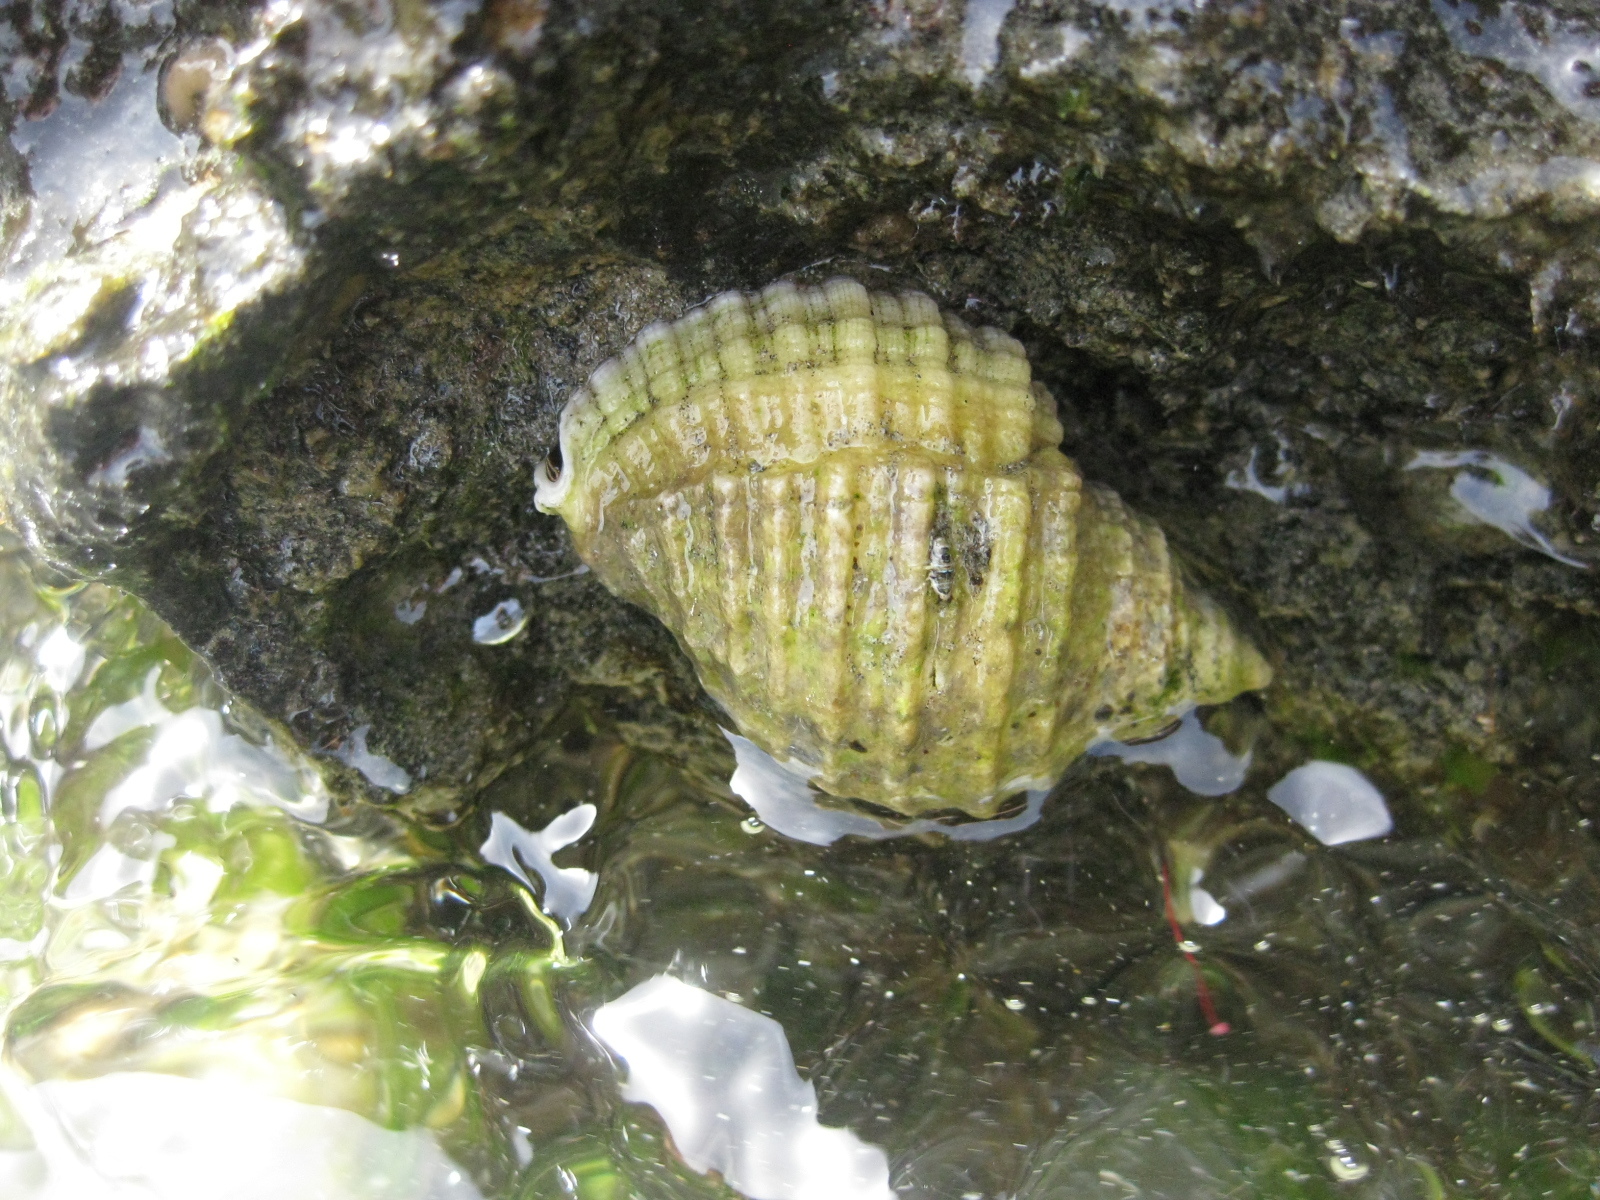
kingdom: Animalia
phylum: Mollusca
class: Gastropoda
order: Neogastropoda
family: Muricidae
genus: Dicathais
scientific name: Dicathais orbita
